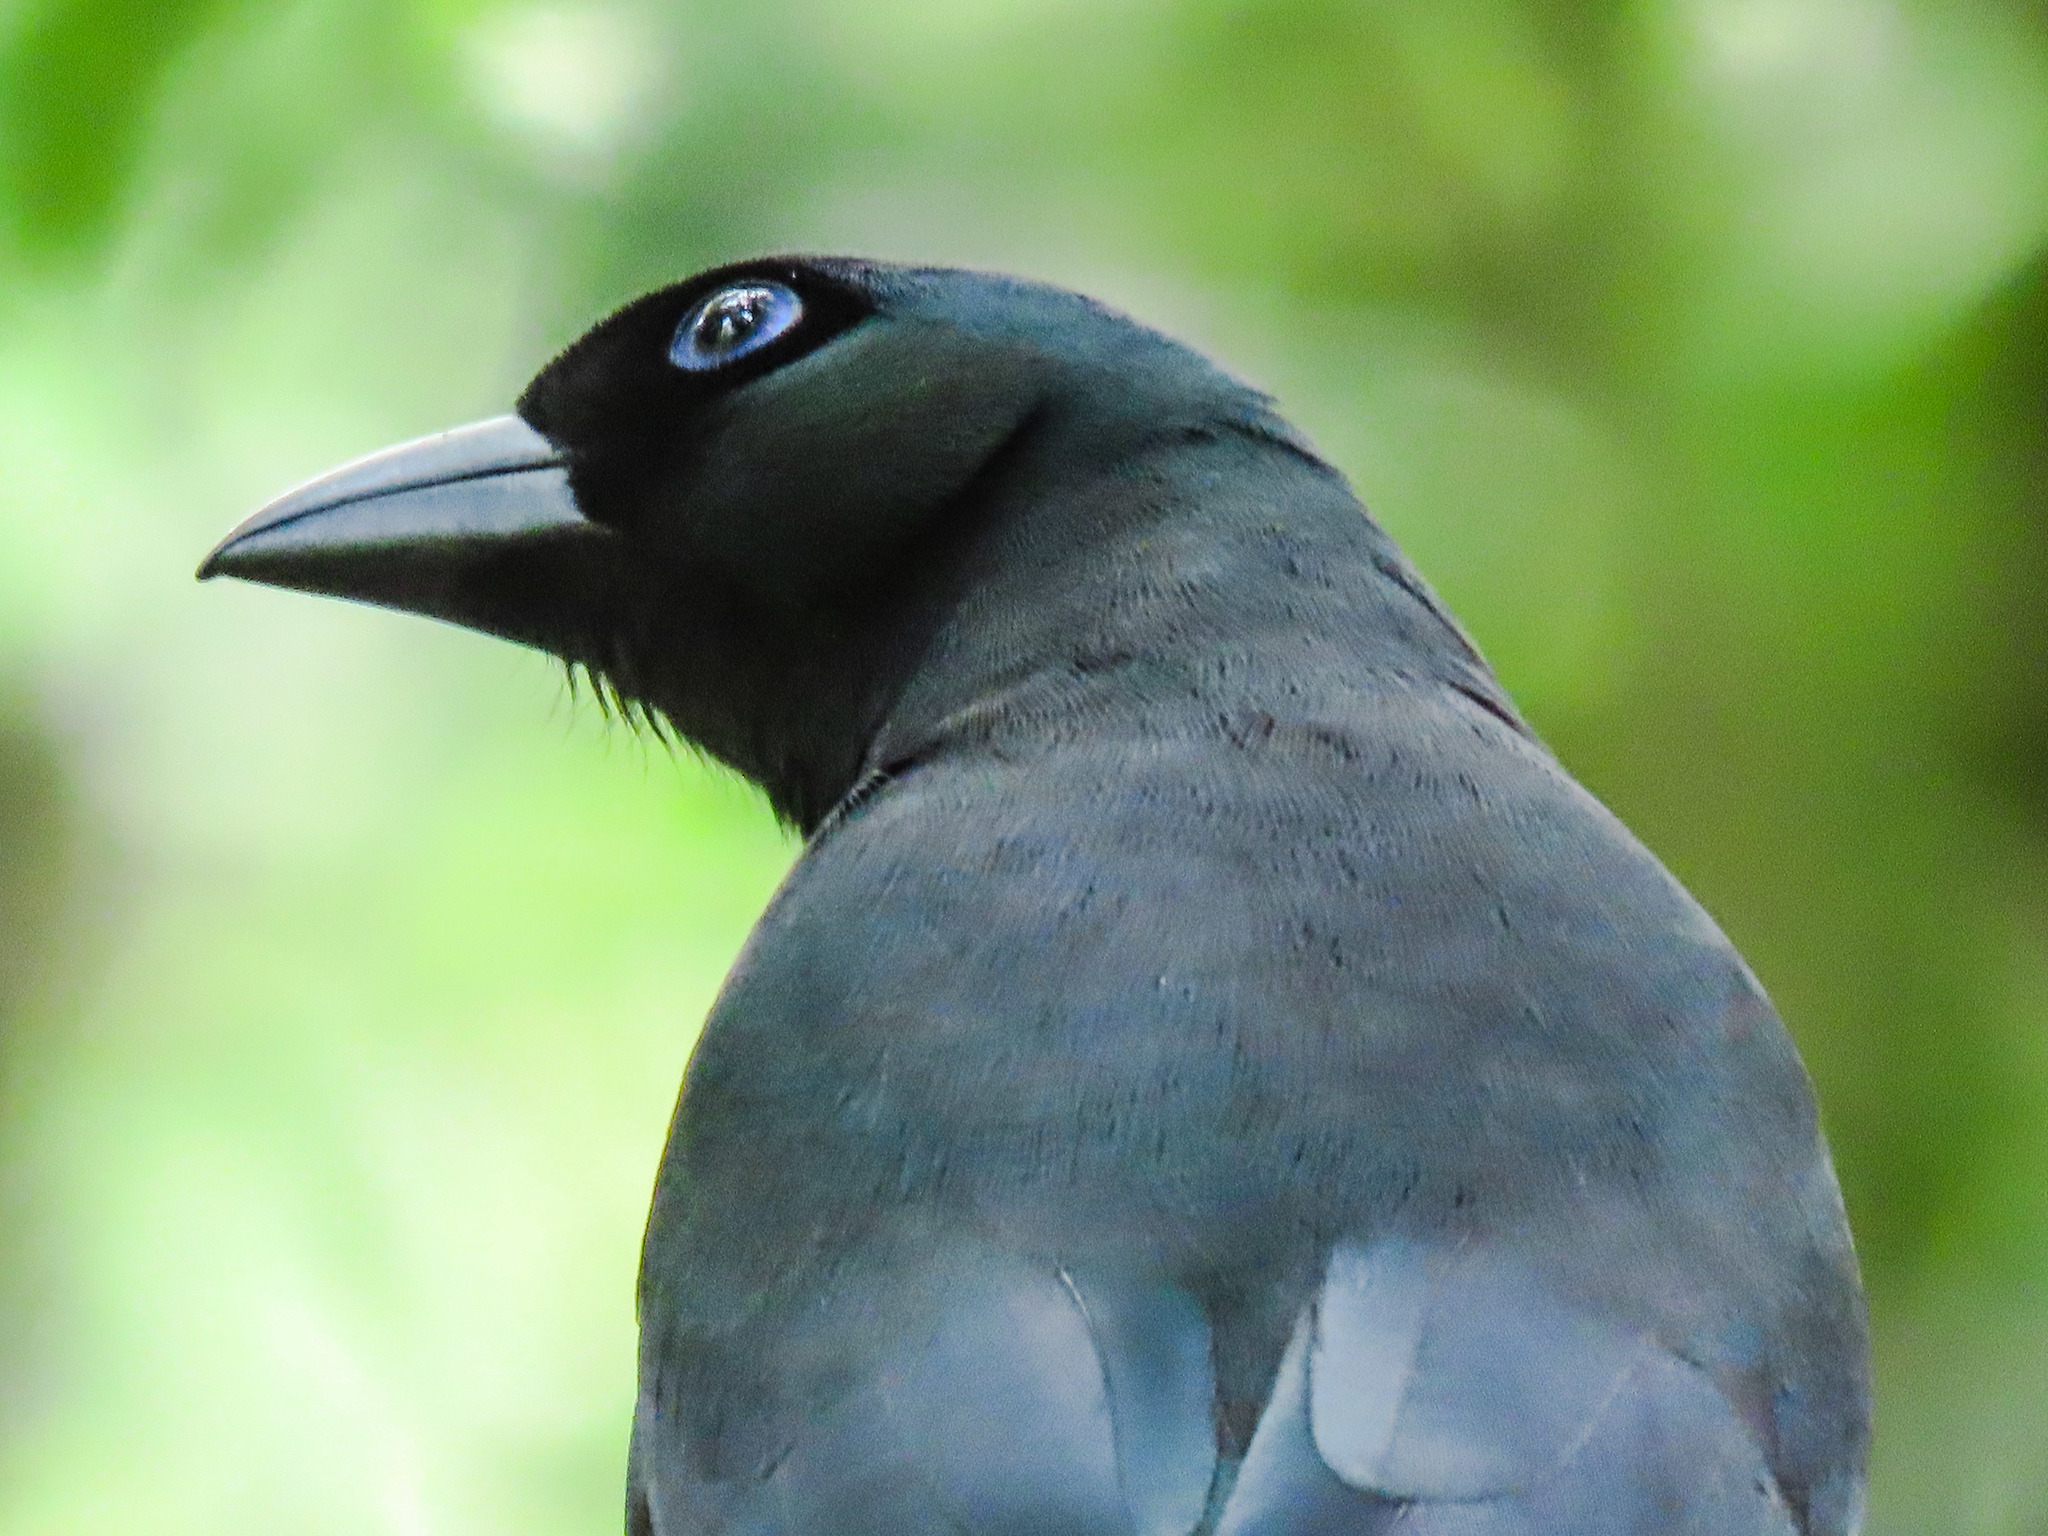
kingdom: Animalia
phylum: Chordata
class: Aves
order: Passeriformes
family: Corvidae
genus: Crypsirina
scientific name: Crypsirina temia
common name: Racket-tailed treepie
